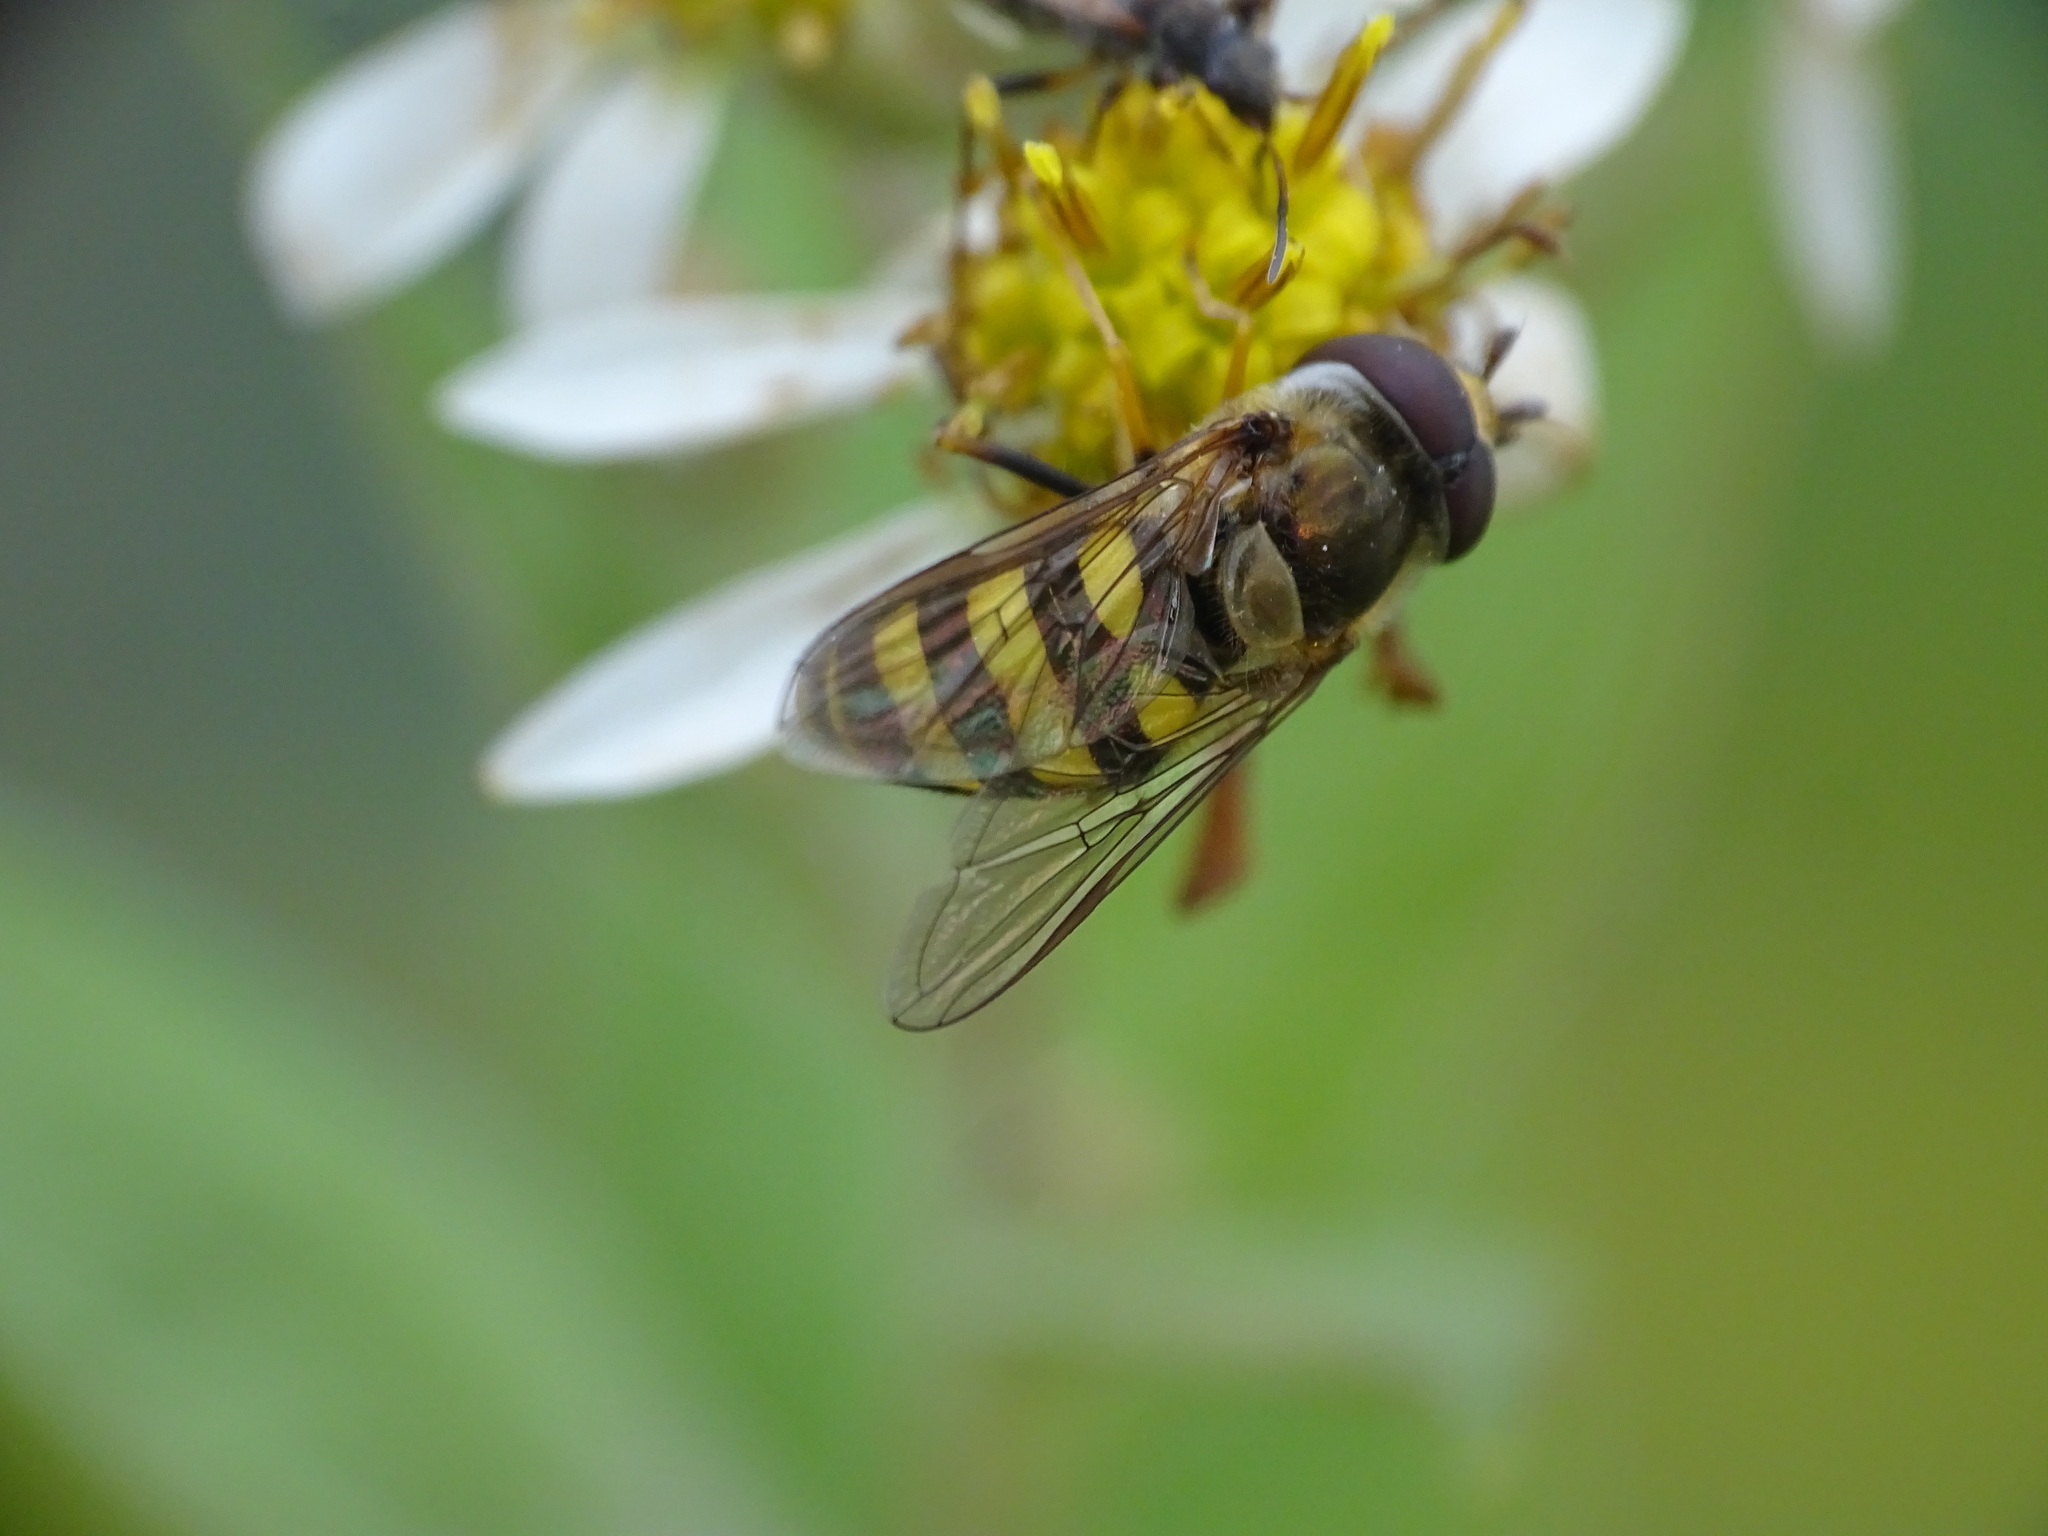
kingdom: Animalia
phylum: Arthropoda
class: Insecta
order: Diptera
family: Syrphidae
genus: Eupeodes
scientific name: Eupeodes
